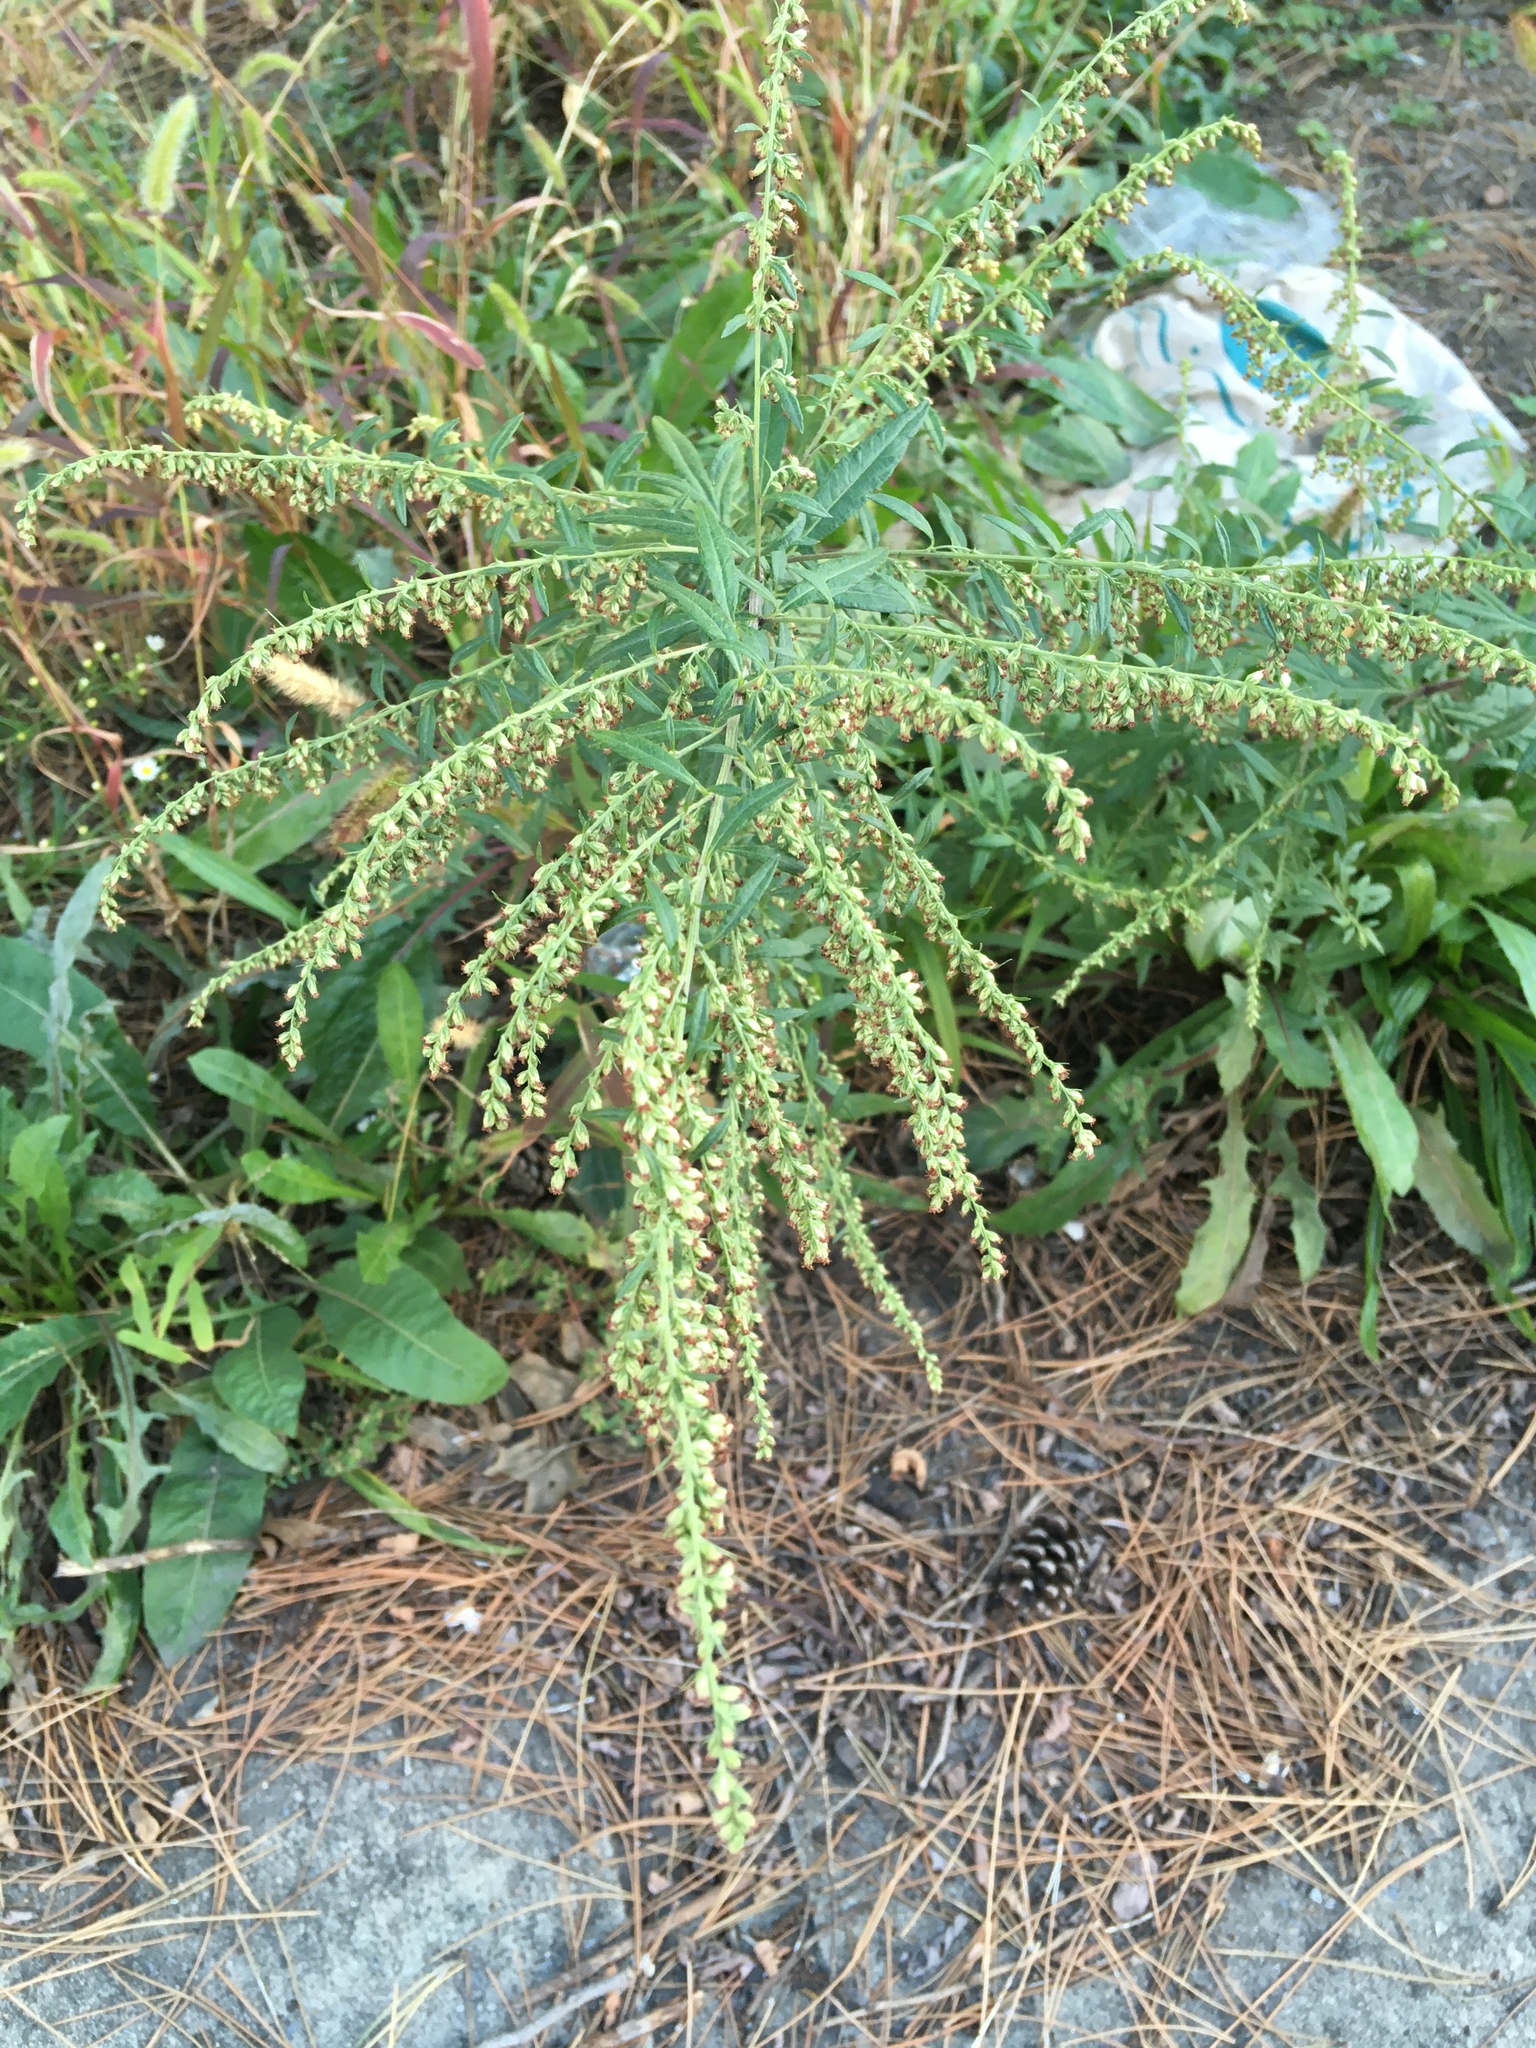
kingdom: Plantae
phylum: Tracheophyta
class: Magnoliopsida
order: Asterales
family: Asteraceae
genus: Artemisia
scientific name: Artemisia vulgaris
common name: Mugwort
